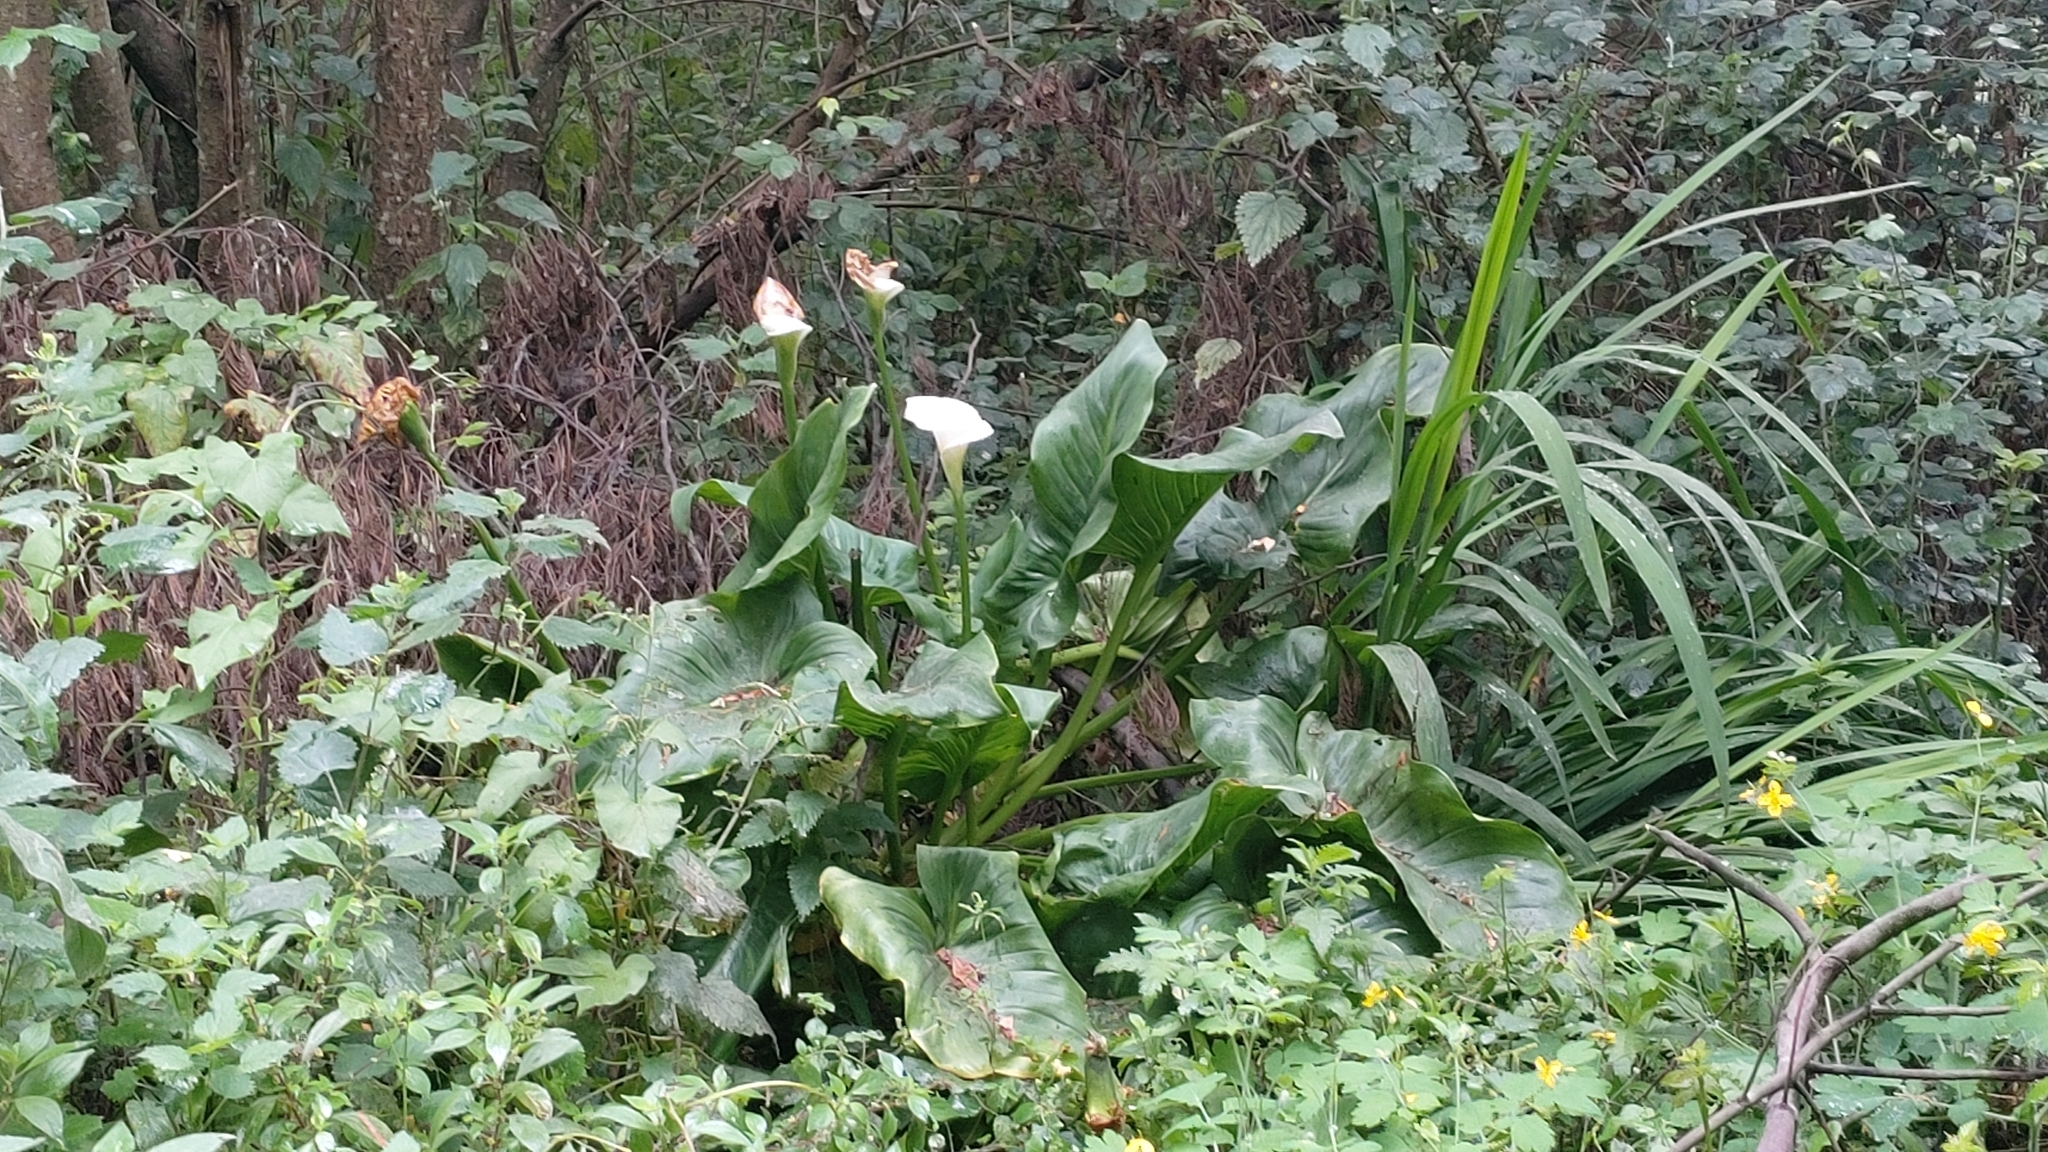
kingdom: Plantae
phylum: Tracheophyta
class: Liliopsida
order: Alismatales
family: Araceae
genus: Zantedeschia
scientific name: Zantedeschia aethiopica
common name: Altar-lily
